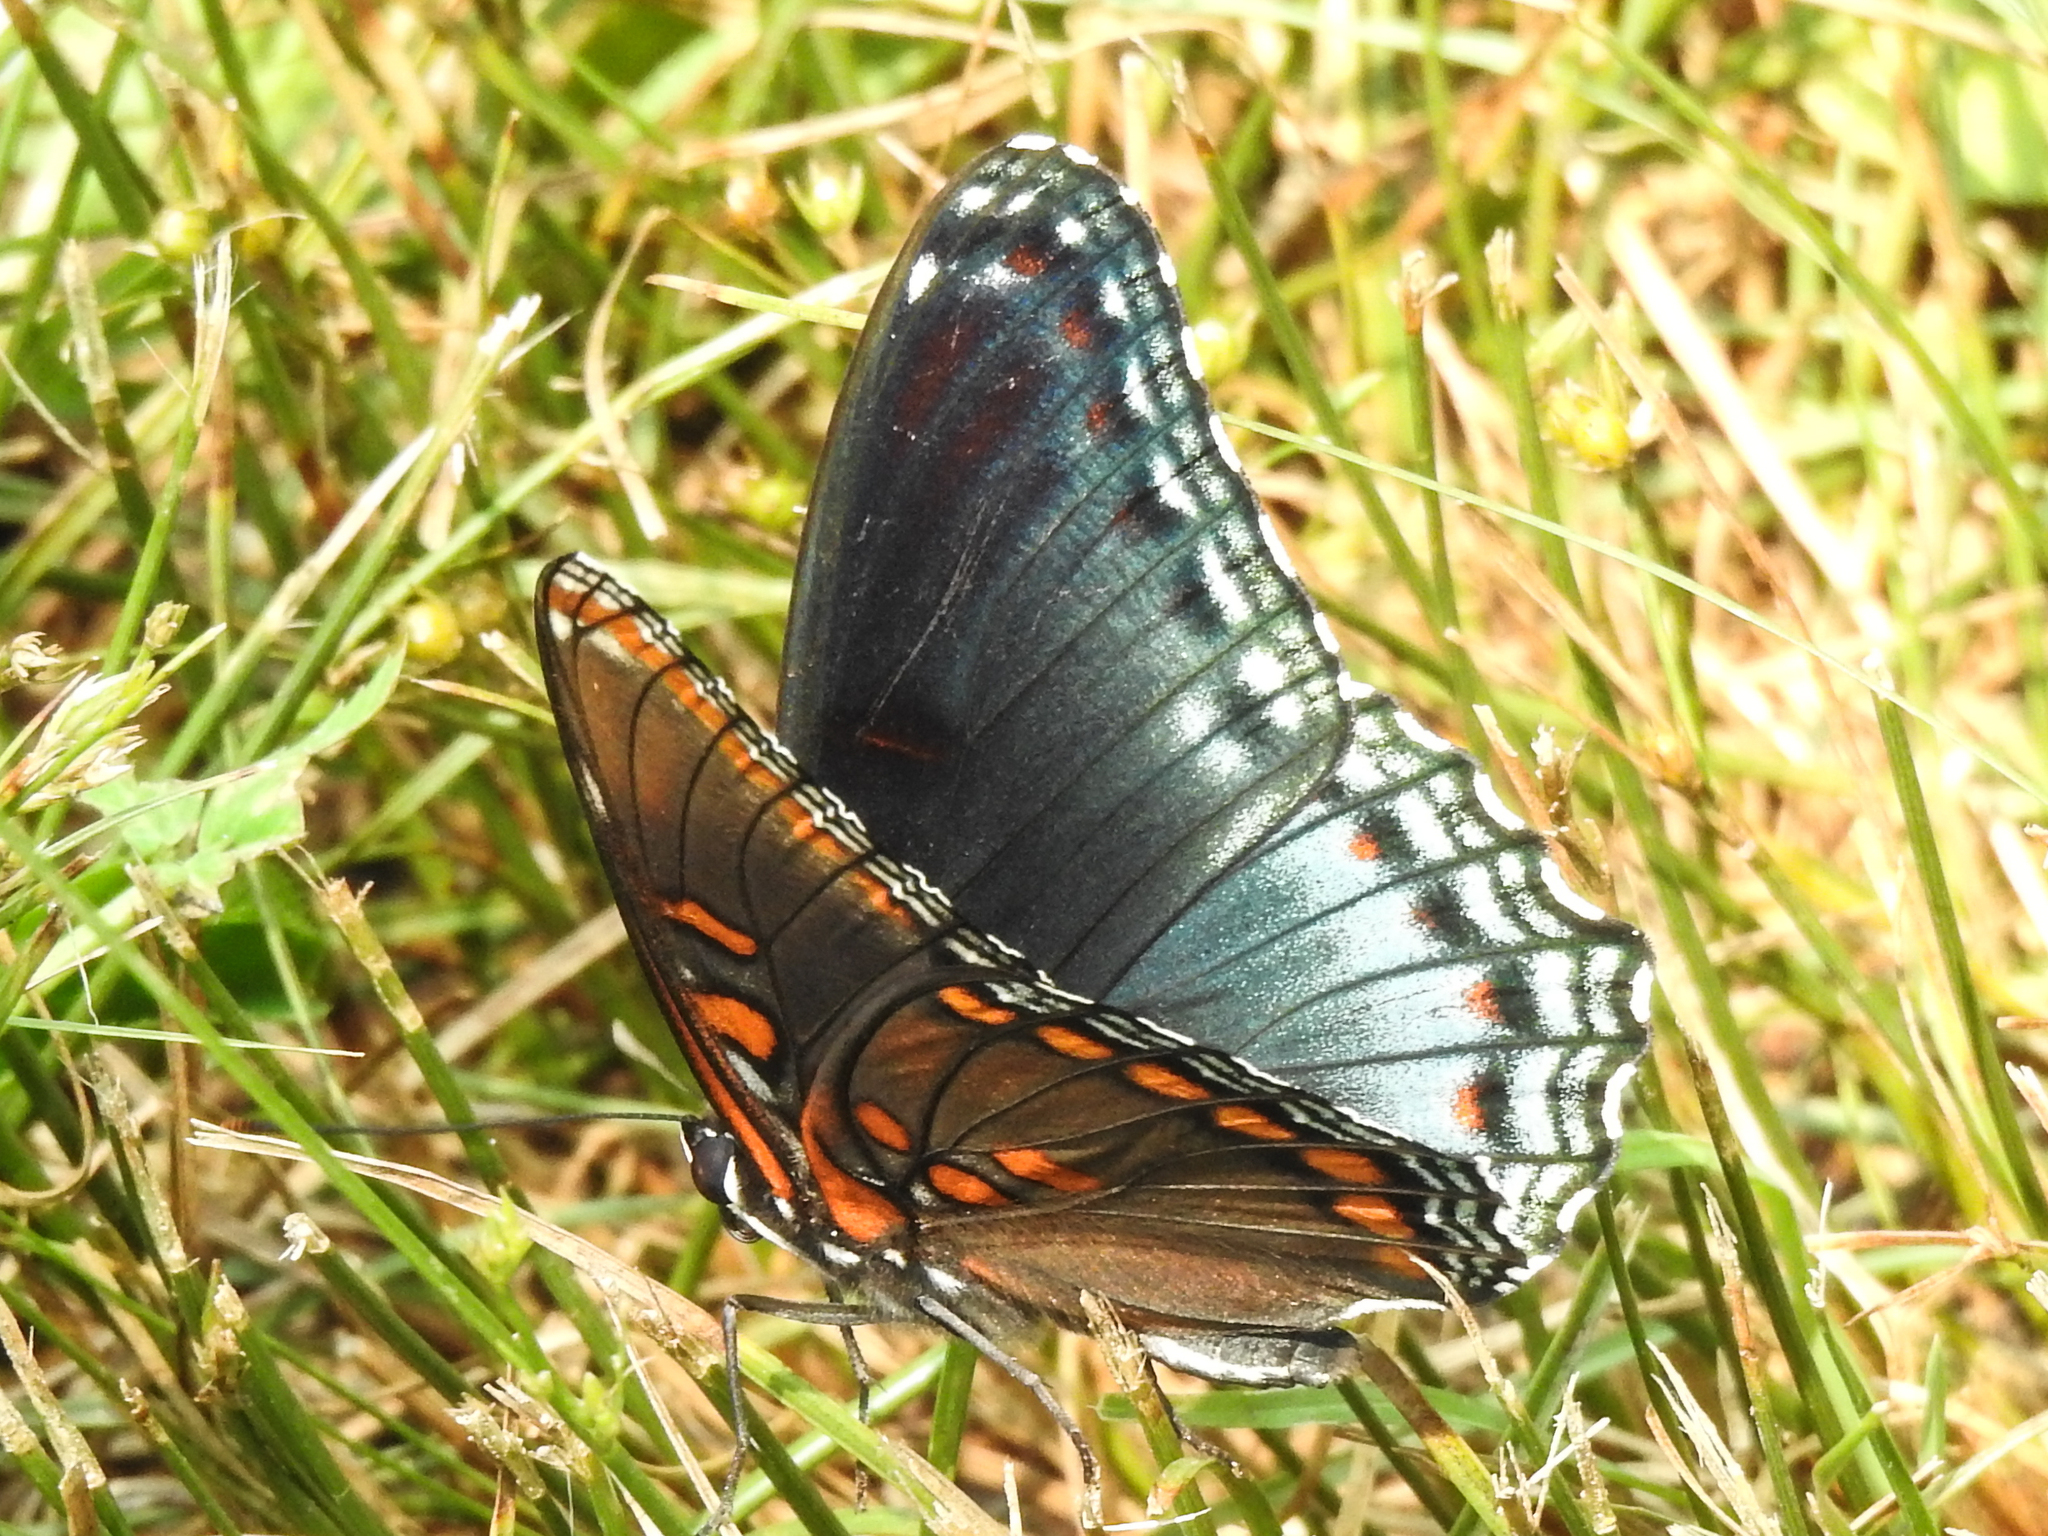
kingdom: Animalia
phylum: Arthropoda
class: Insecta
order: Lepidoptera
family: Nymphalidae
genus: Limenitis
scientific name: Limenitis arthemis
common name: Red-spotted admiral
